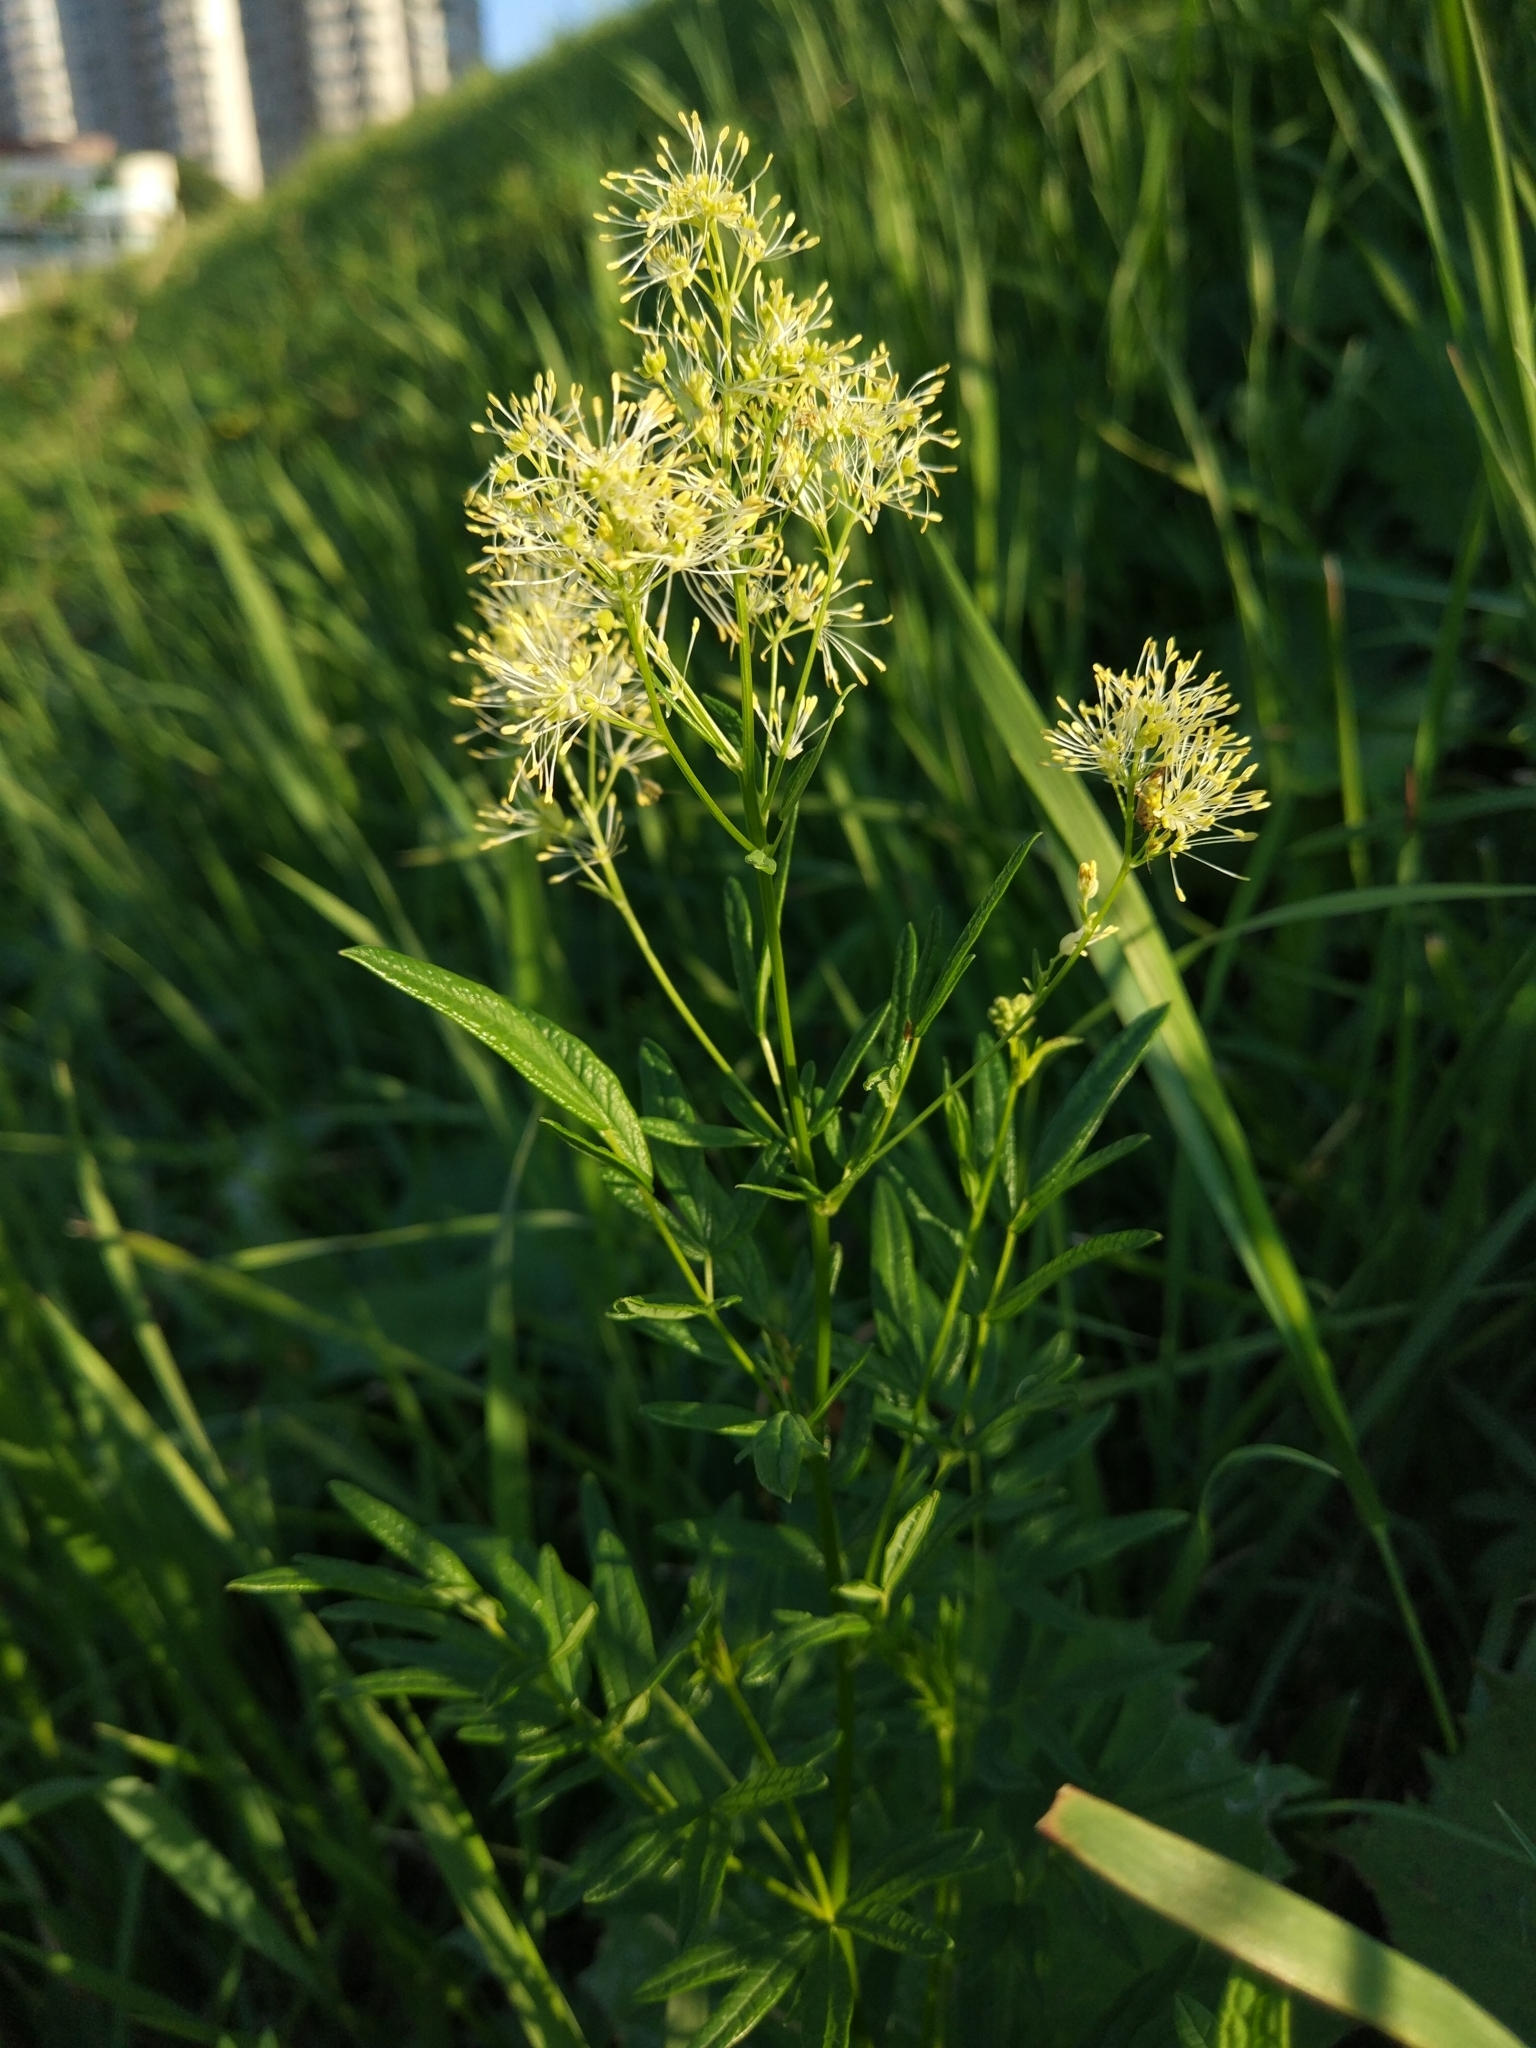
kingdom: Plantae
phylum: Tracheophyta
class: Magnoliopsida
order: Ranunculales
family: Ranunculaceae
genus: Thalictrum
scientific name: Thalictrum lucidum
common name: Shining meadow-rue
